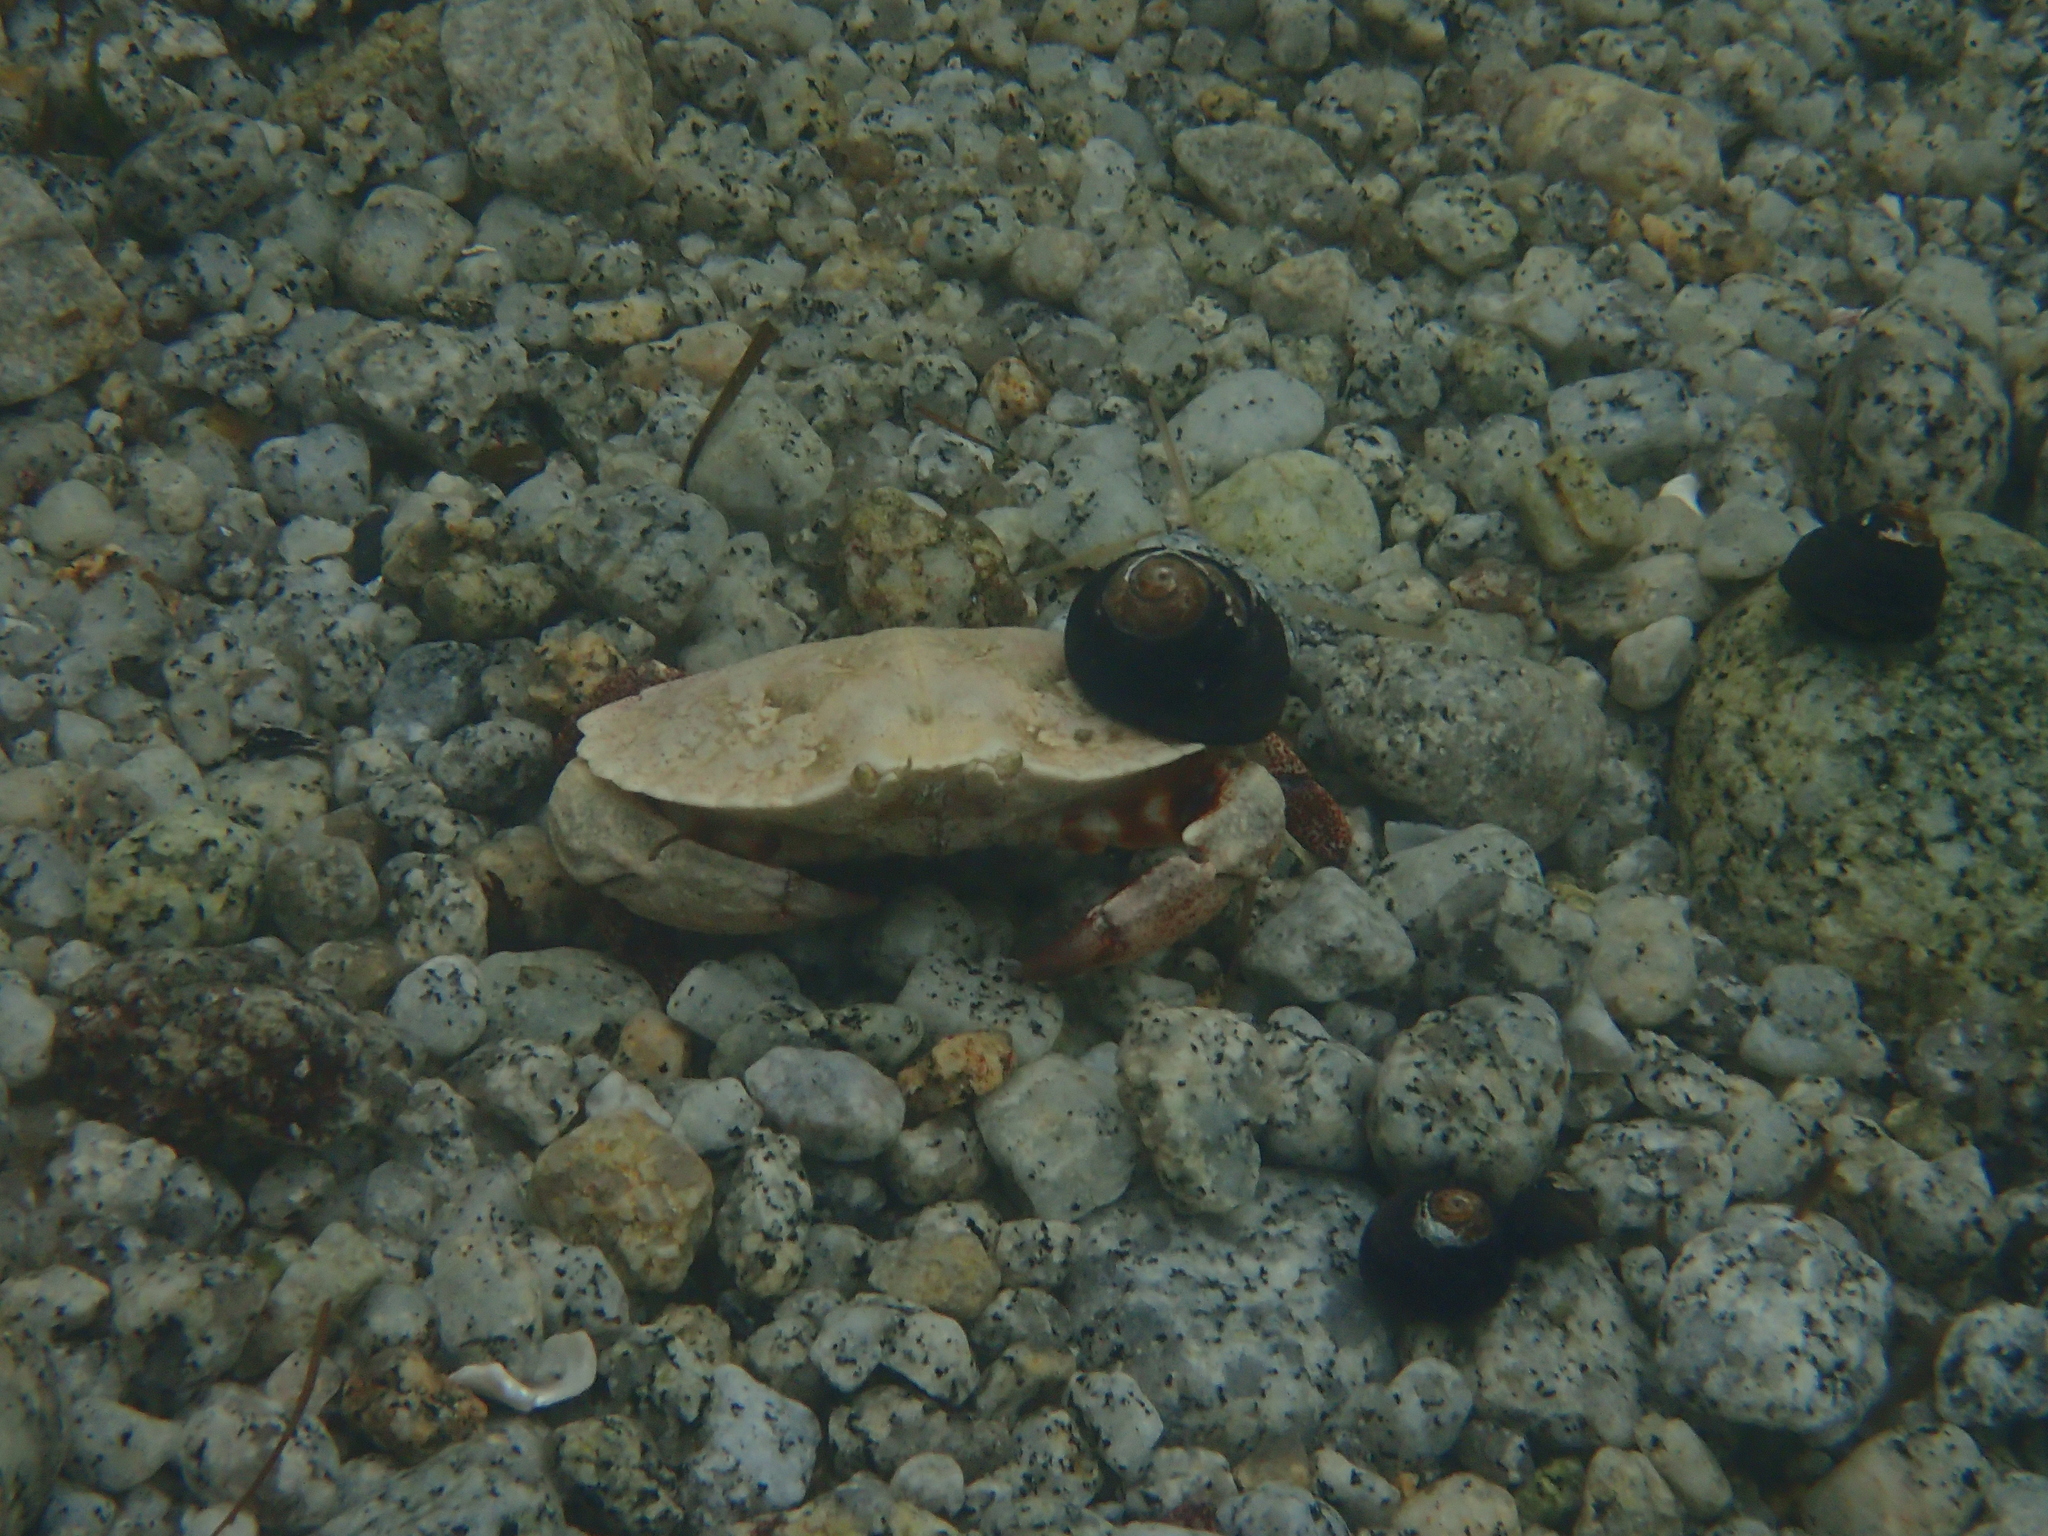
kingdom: Animalia
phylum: Arthropoda
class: Malacostraca
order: Decapoda
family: Cancridae
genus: Cancer
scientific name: Cancer productus
